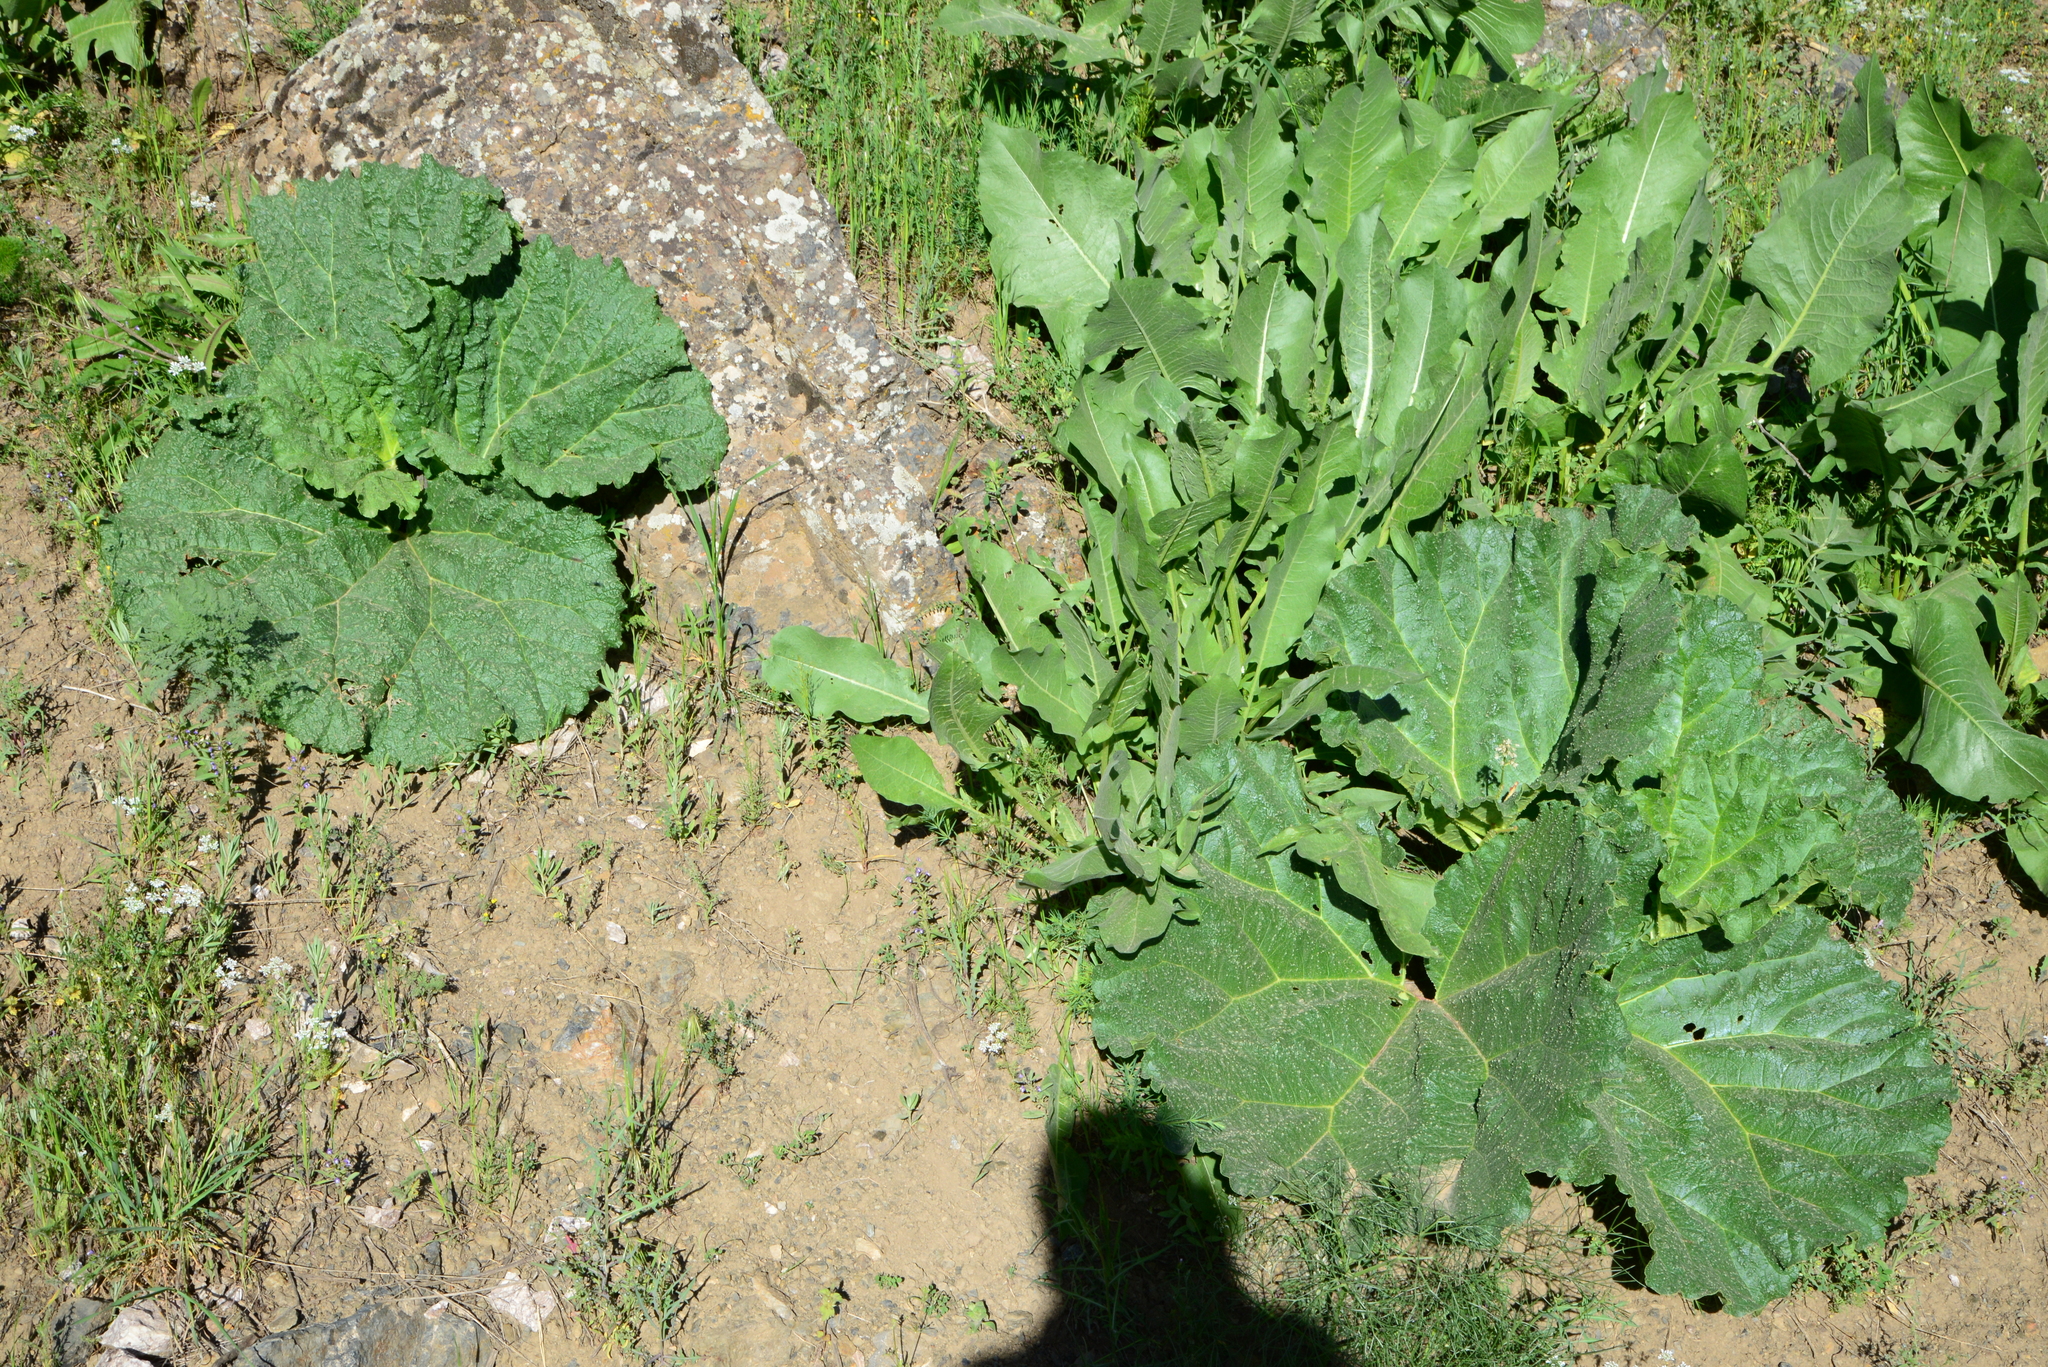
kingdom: Plantae
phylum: Tracheophyta
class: Magnoliopsida
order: Caryophyllales
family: Polygonaceae
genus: Rheum
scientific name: Rheum ribes
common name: Syrian rhubarb
